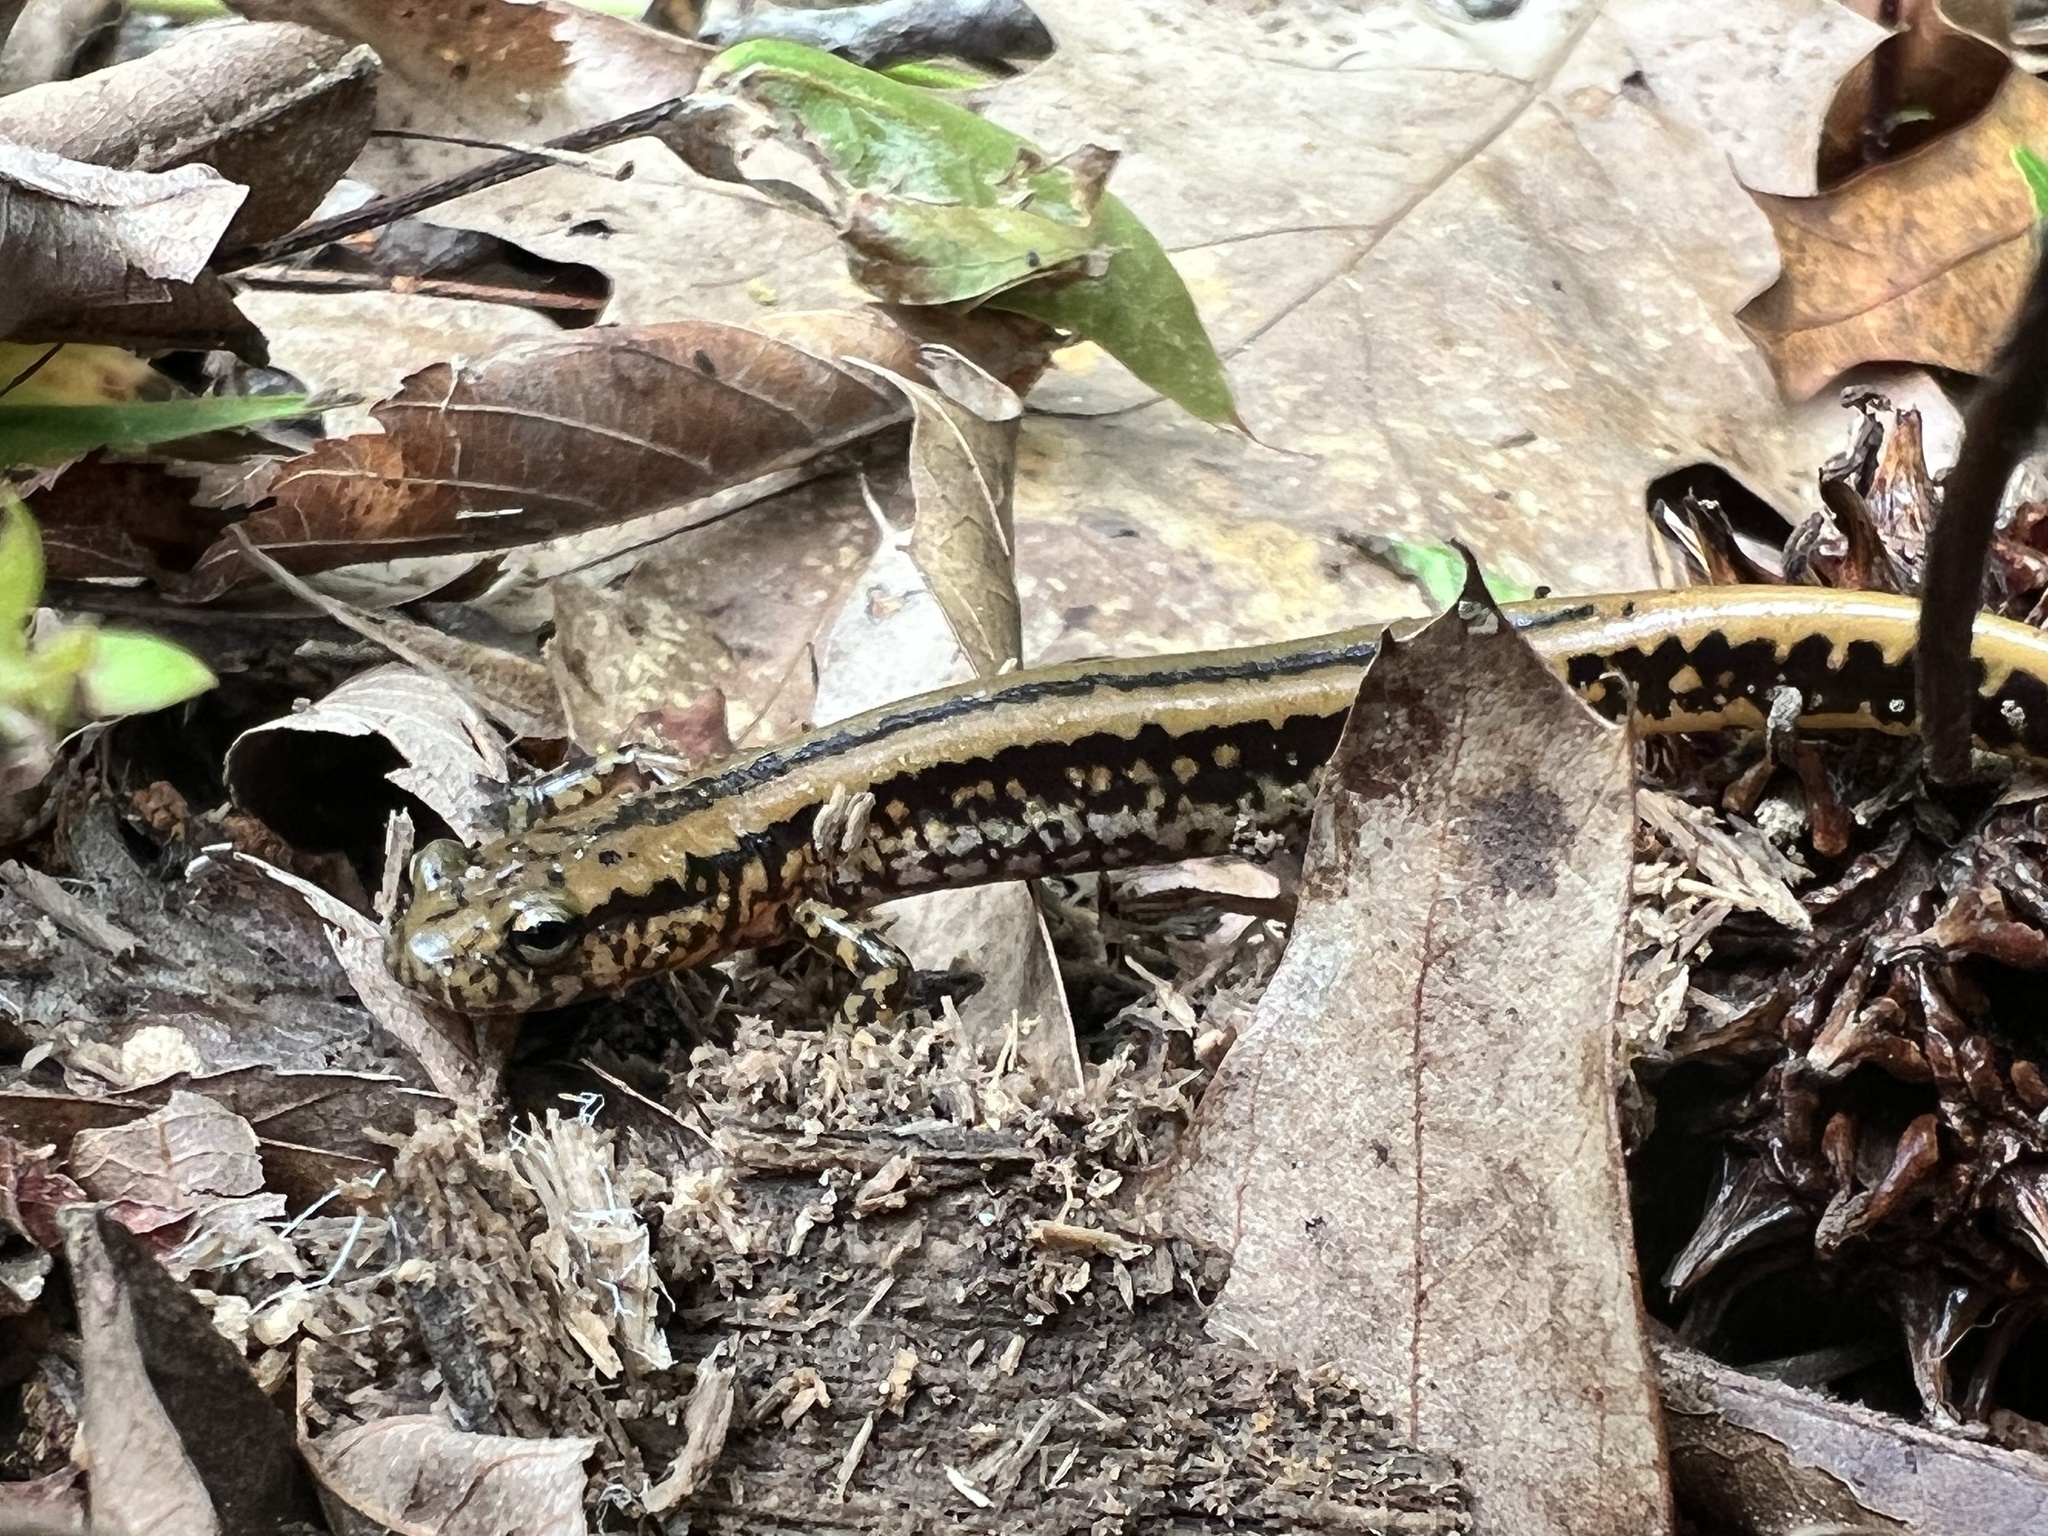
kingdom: Animalia
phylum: Chordata
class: Amphibia
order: Caudata
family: Plethodontidae
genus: Eurycea
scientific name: Eurycea guttolineata
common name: Three-lined salamander
